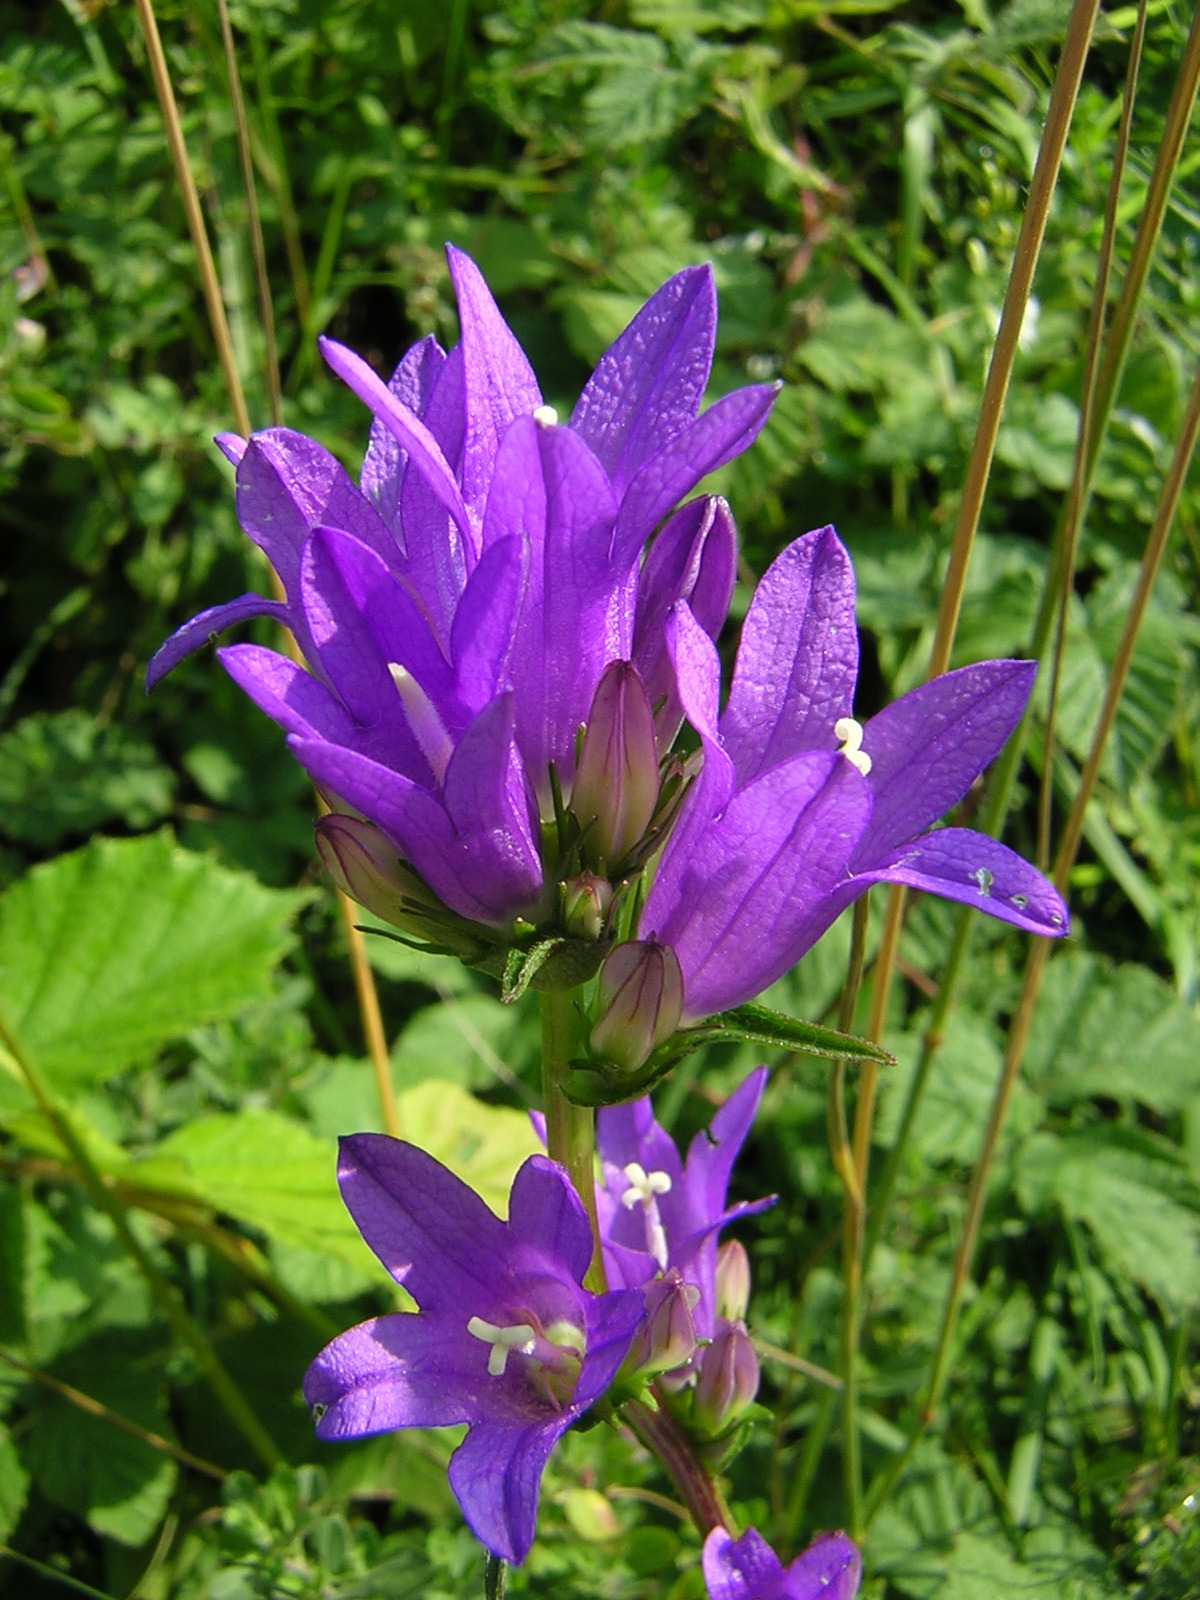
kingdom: Plantae
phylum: Tracheophyta
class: Magnoliopsida
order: Asterales
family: Campanulaceae
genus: Campanula
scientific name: Campanula glomerata
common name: Clustered bellflower
